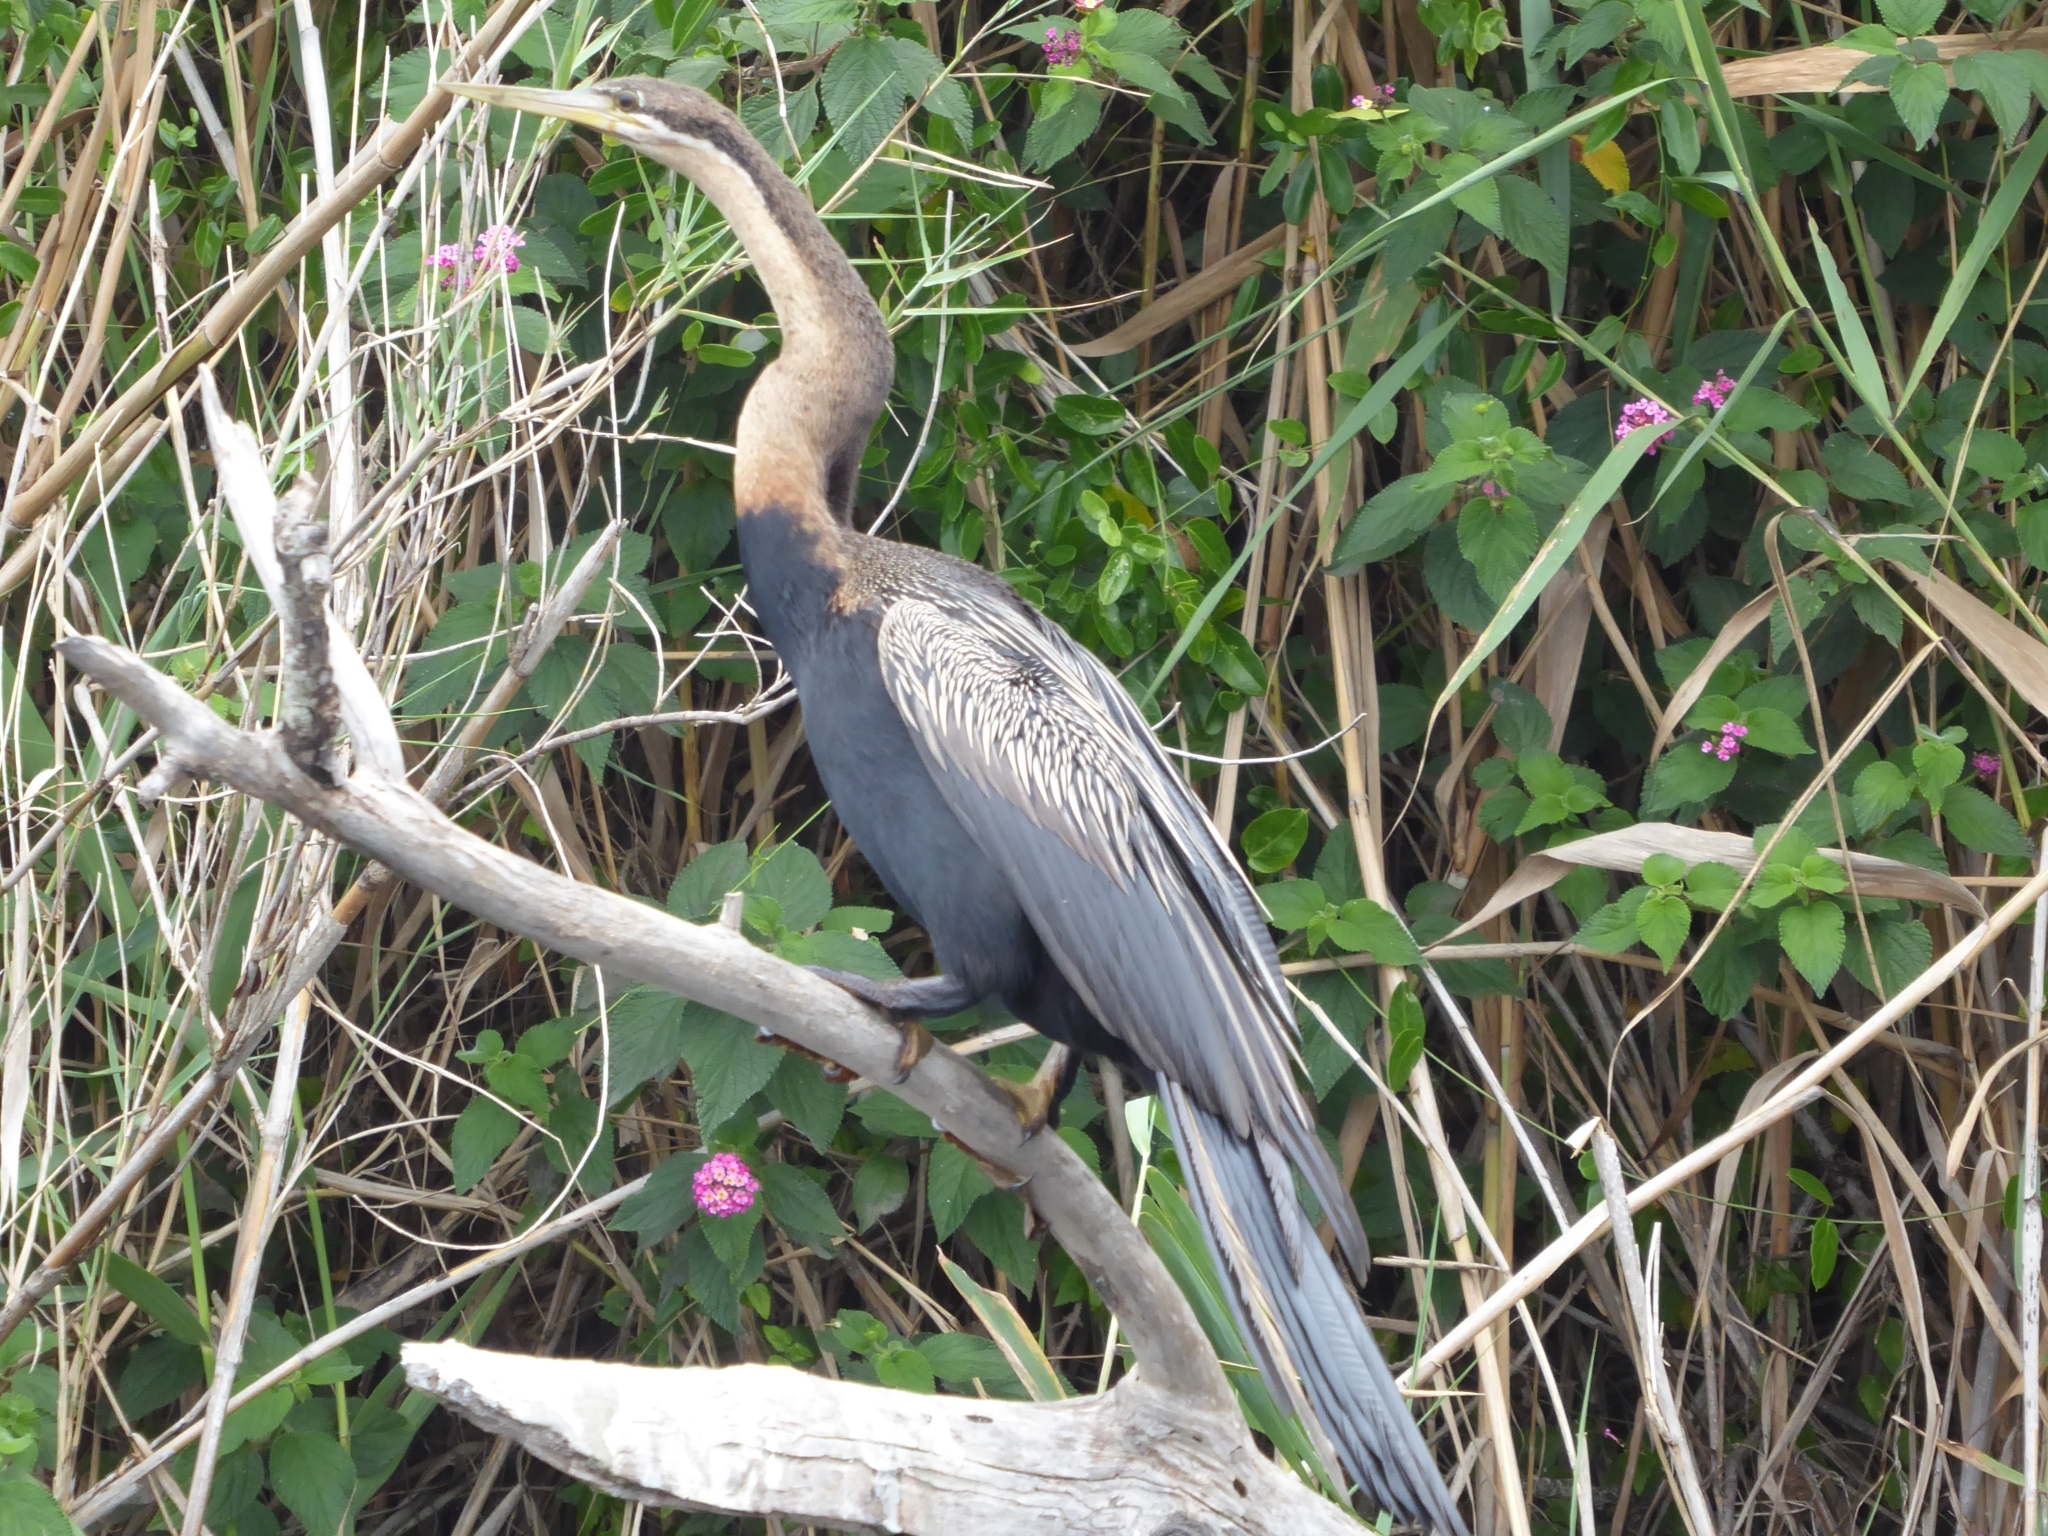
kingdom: Animalia
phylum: Chordata
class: Aves
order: Suliformes
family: Anhingidae
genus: Anhinga
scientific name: Anhinga rufa
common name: African darter
